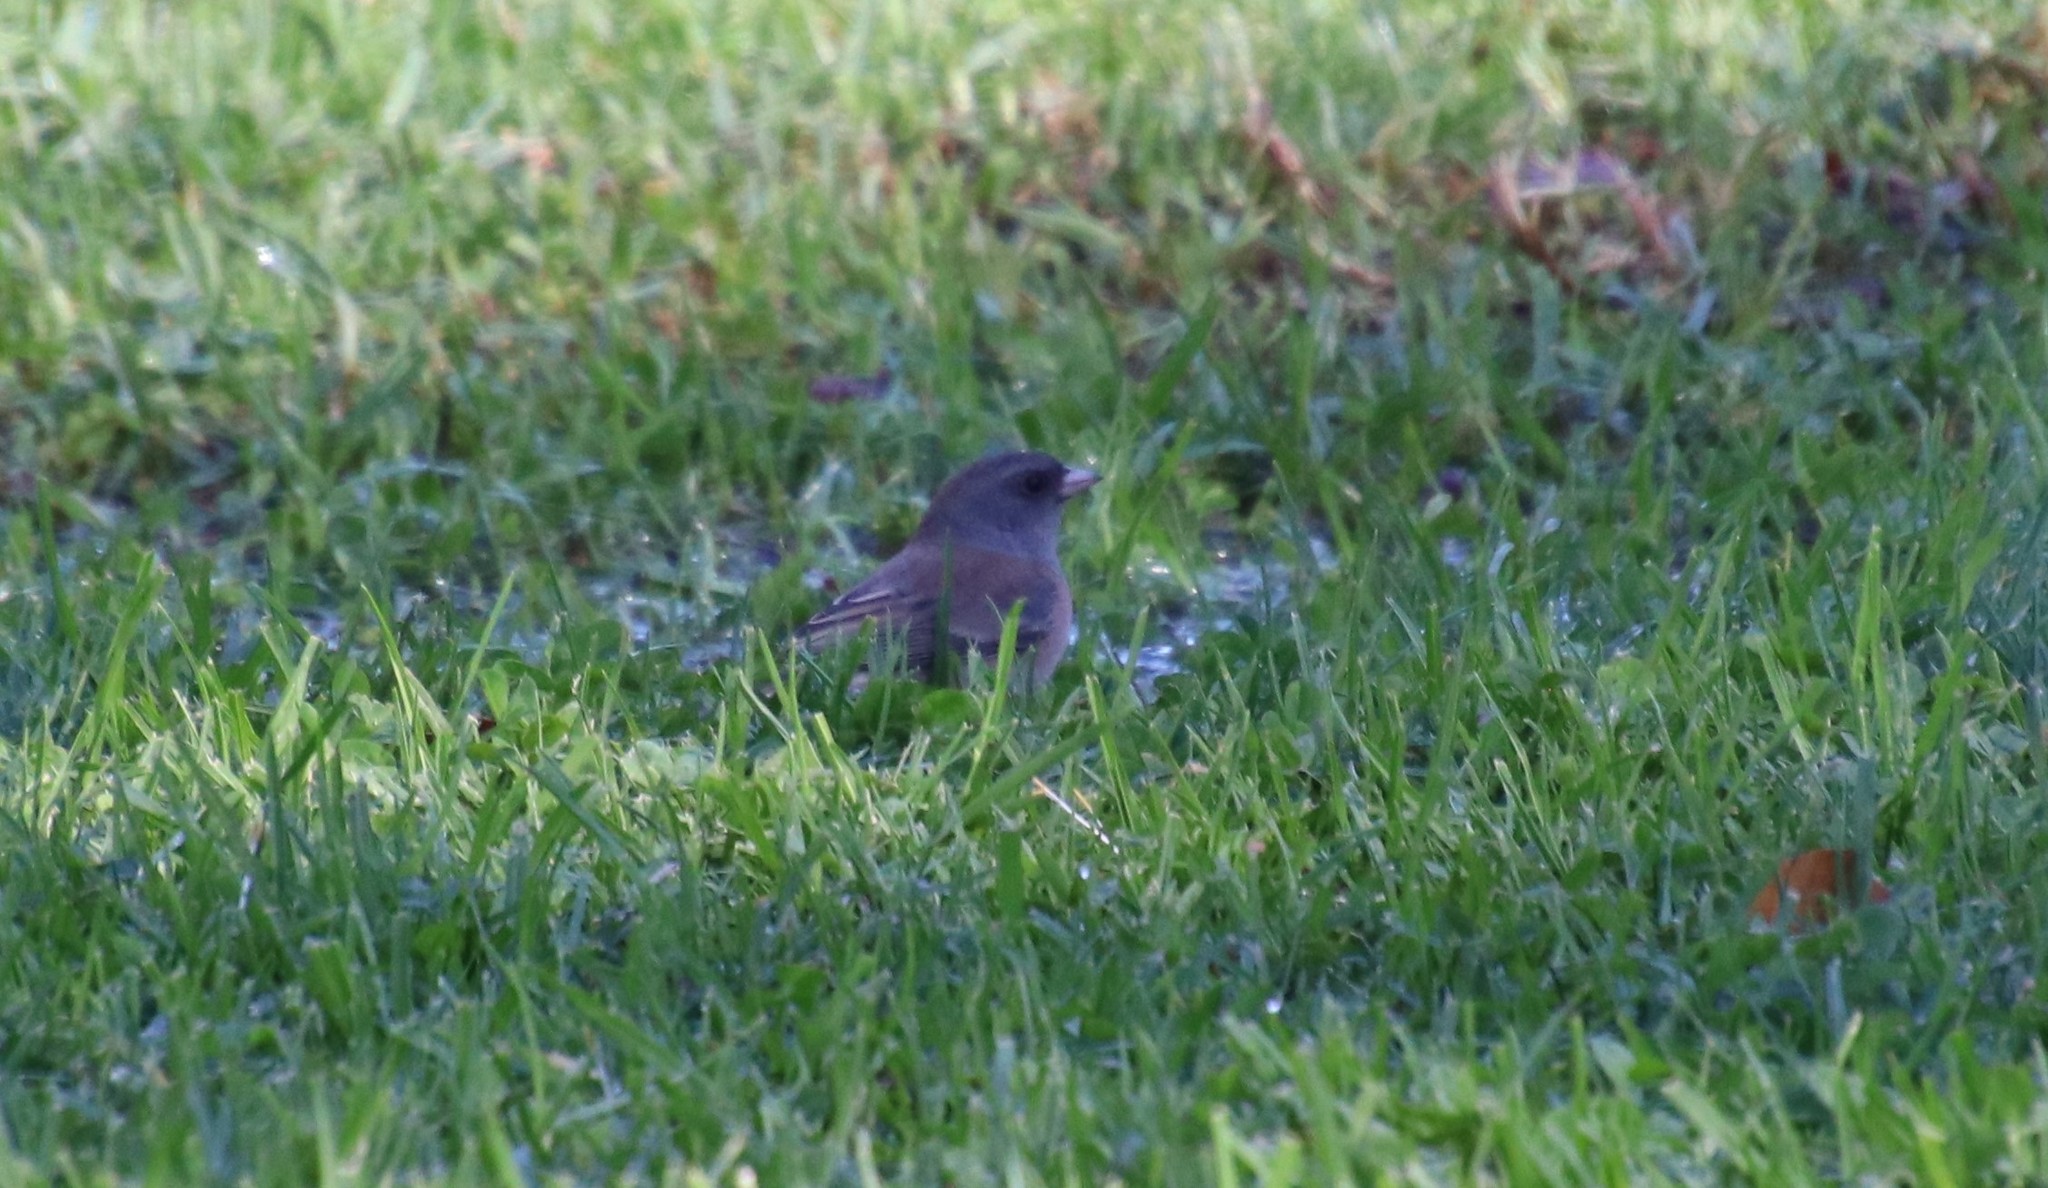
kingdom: Animalia
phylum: Chordata
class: Aves
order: Passeriformes
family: Passerellidae
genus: Junco
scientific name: Junco hyemalis
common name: Dark-eyed junco
